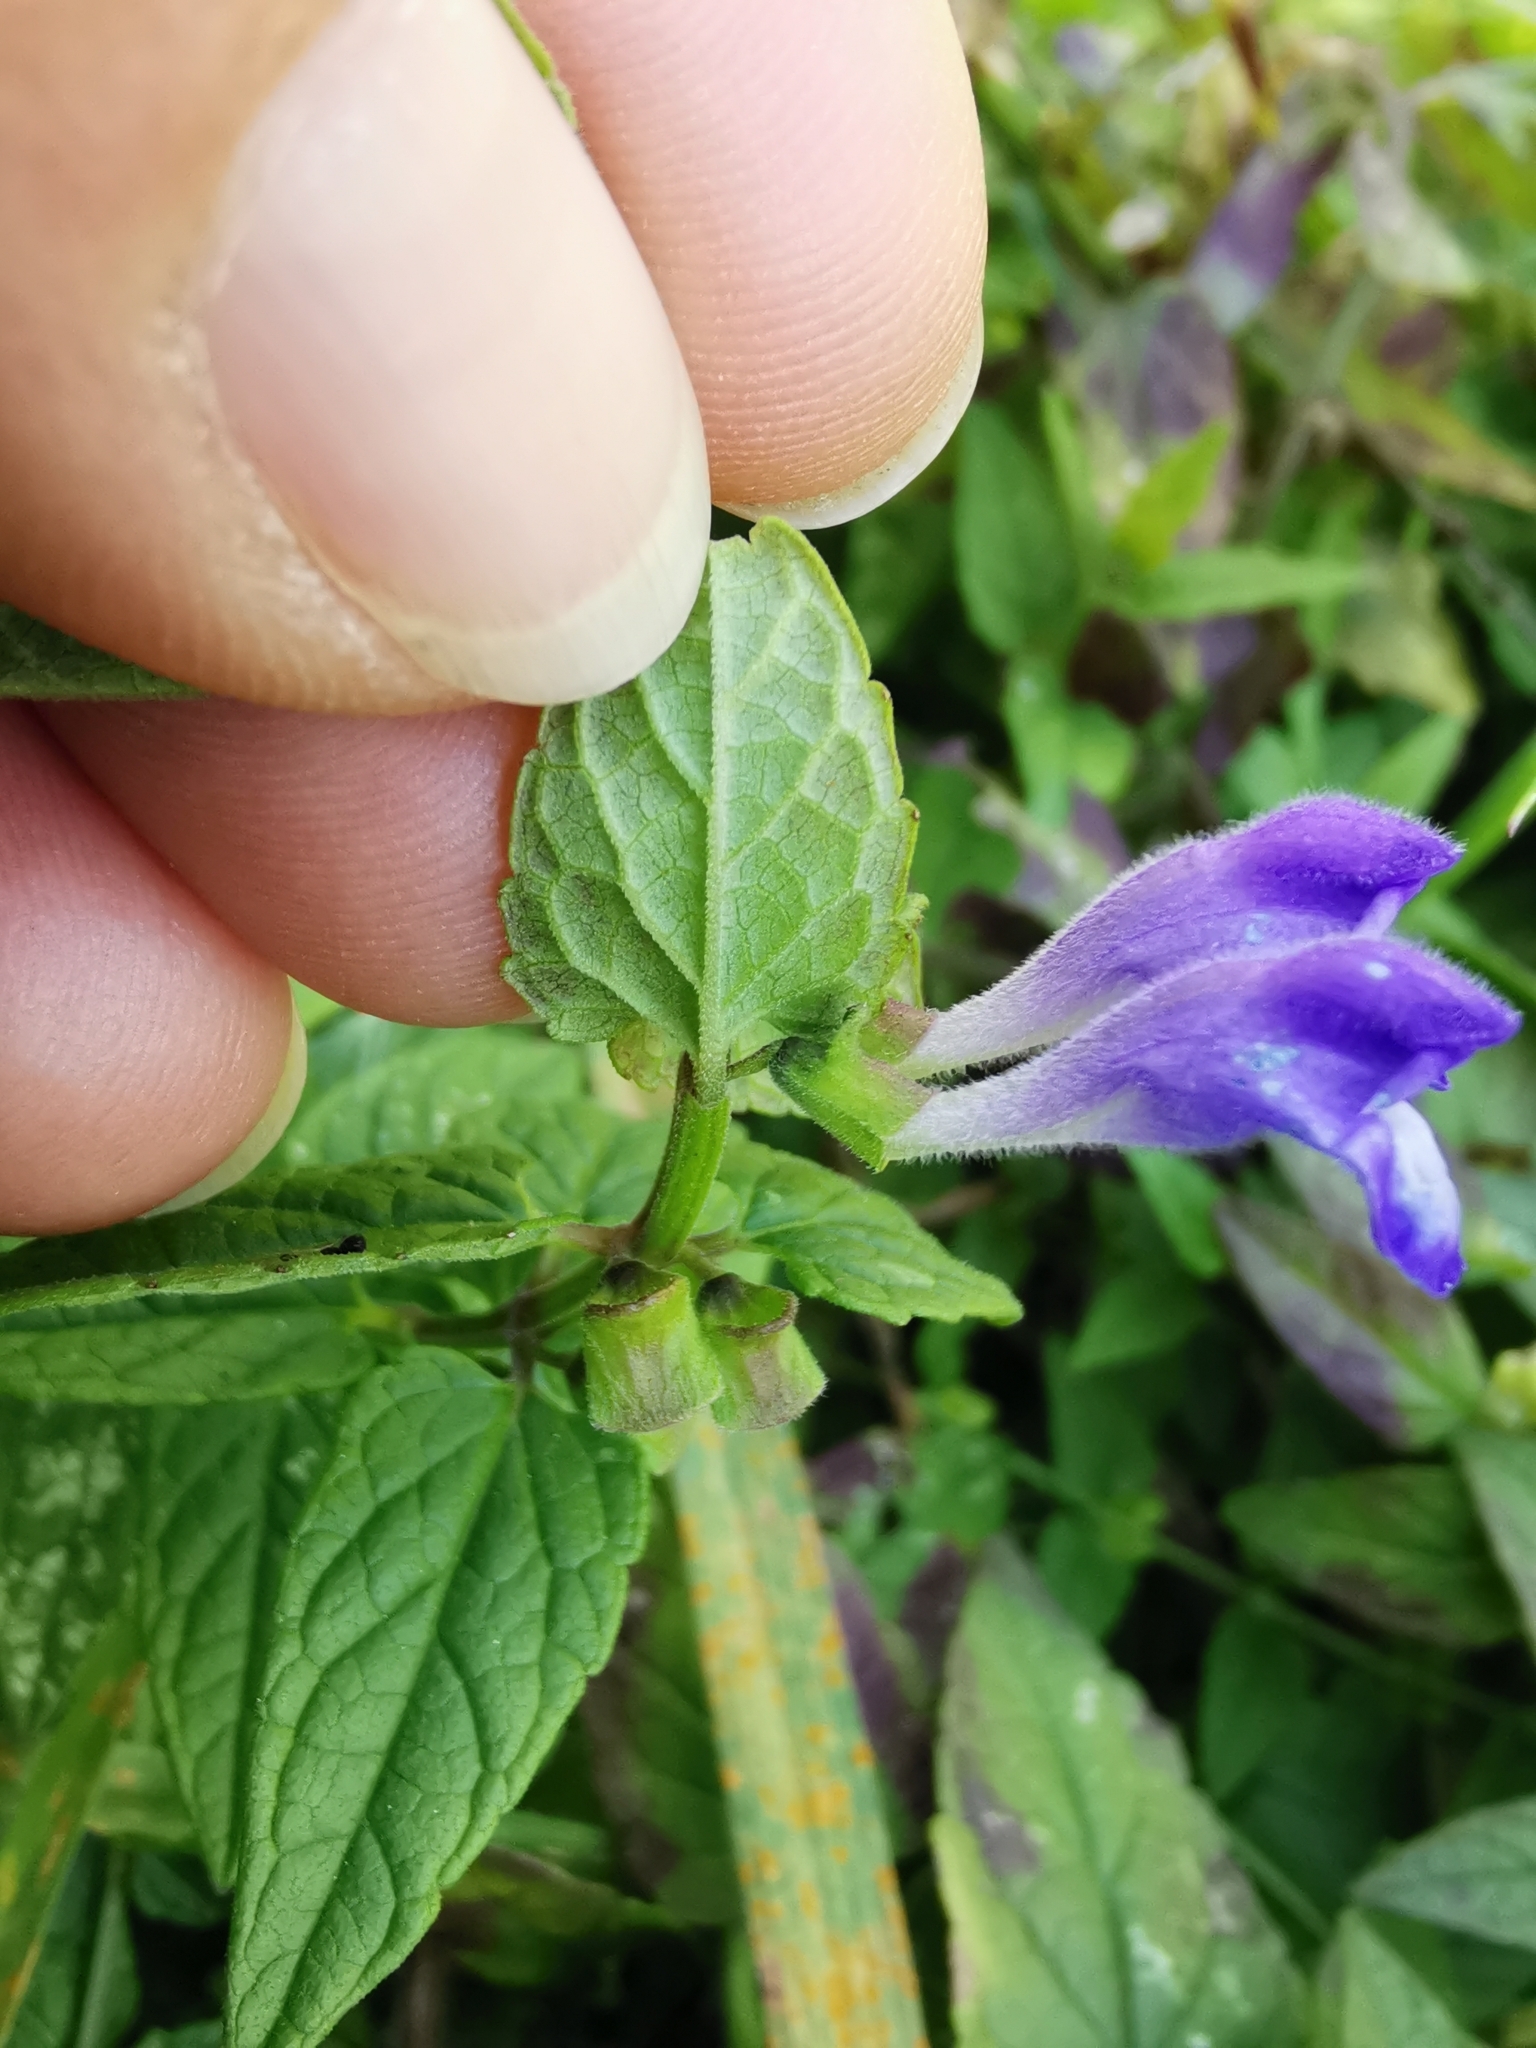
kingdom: Plantae
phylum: Tracheophyta
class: Magnoliopsida
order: Lamiales
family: Lamiaceae
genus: Scutellaria
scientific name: Scutellaria galericulata
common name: Skullcap
